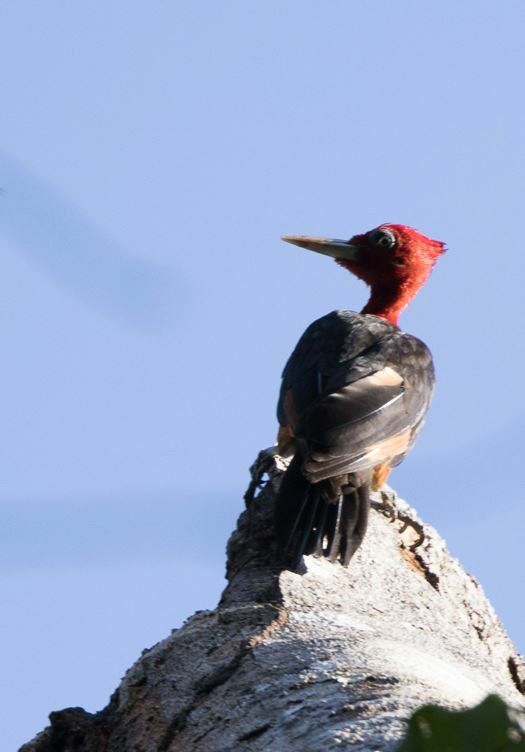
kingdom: Animalia
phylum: Chordata
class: Aves
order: Piciformes
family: Picidae
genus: Campephilus
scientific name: Campephilus rubricollis
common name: Red-necked woodpecker
